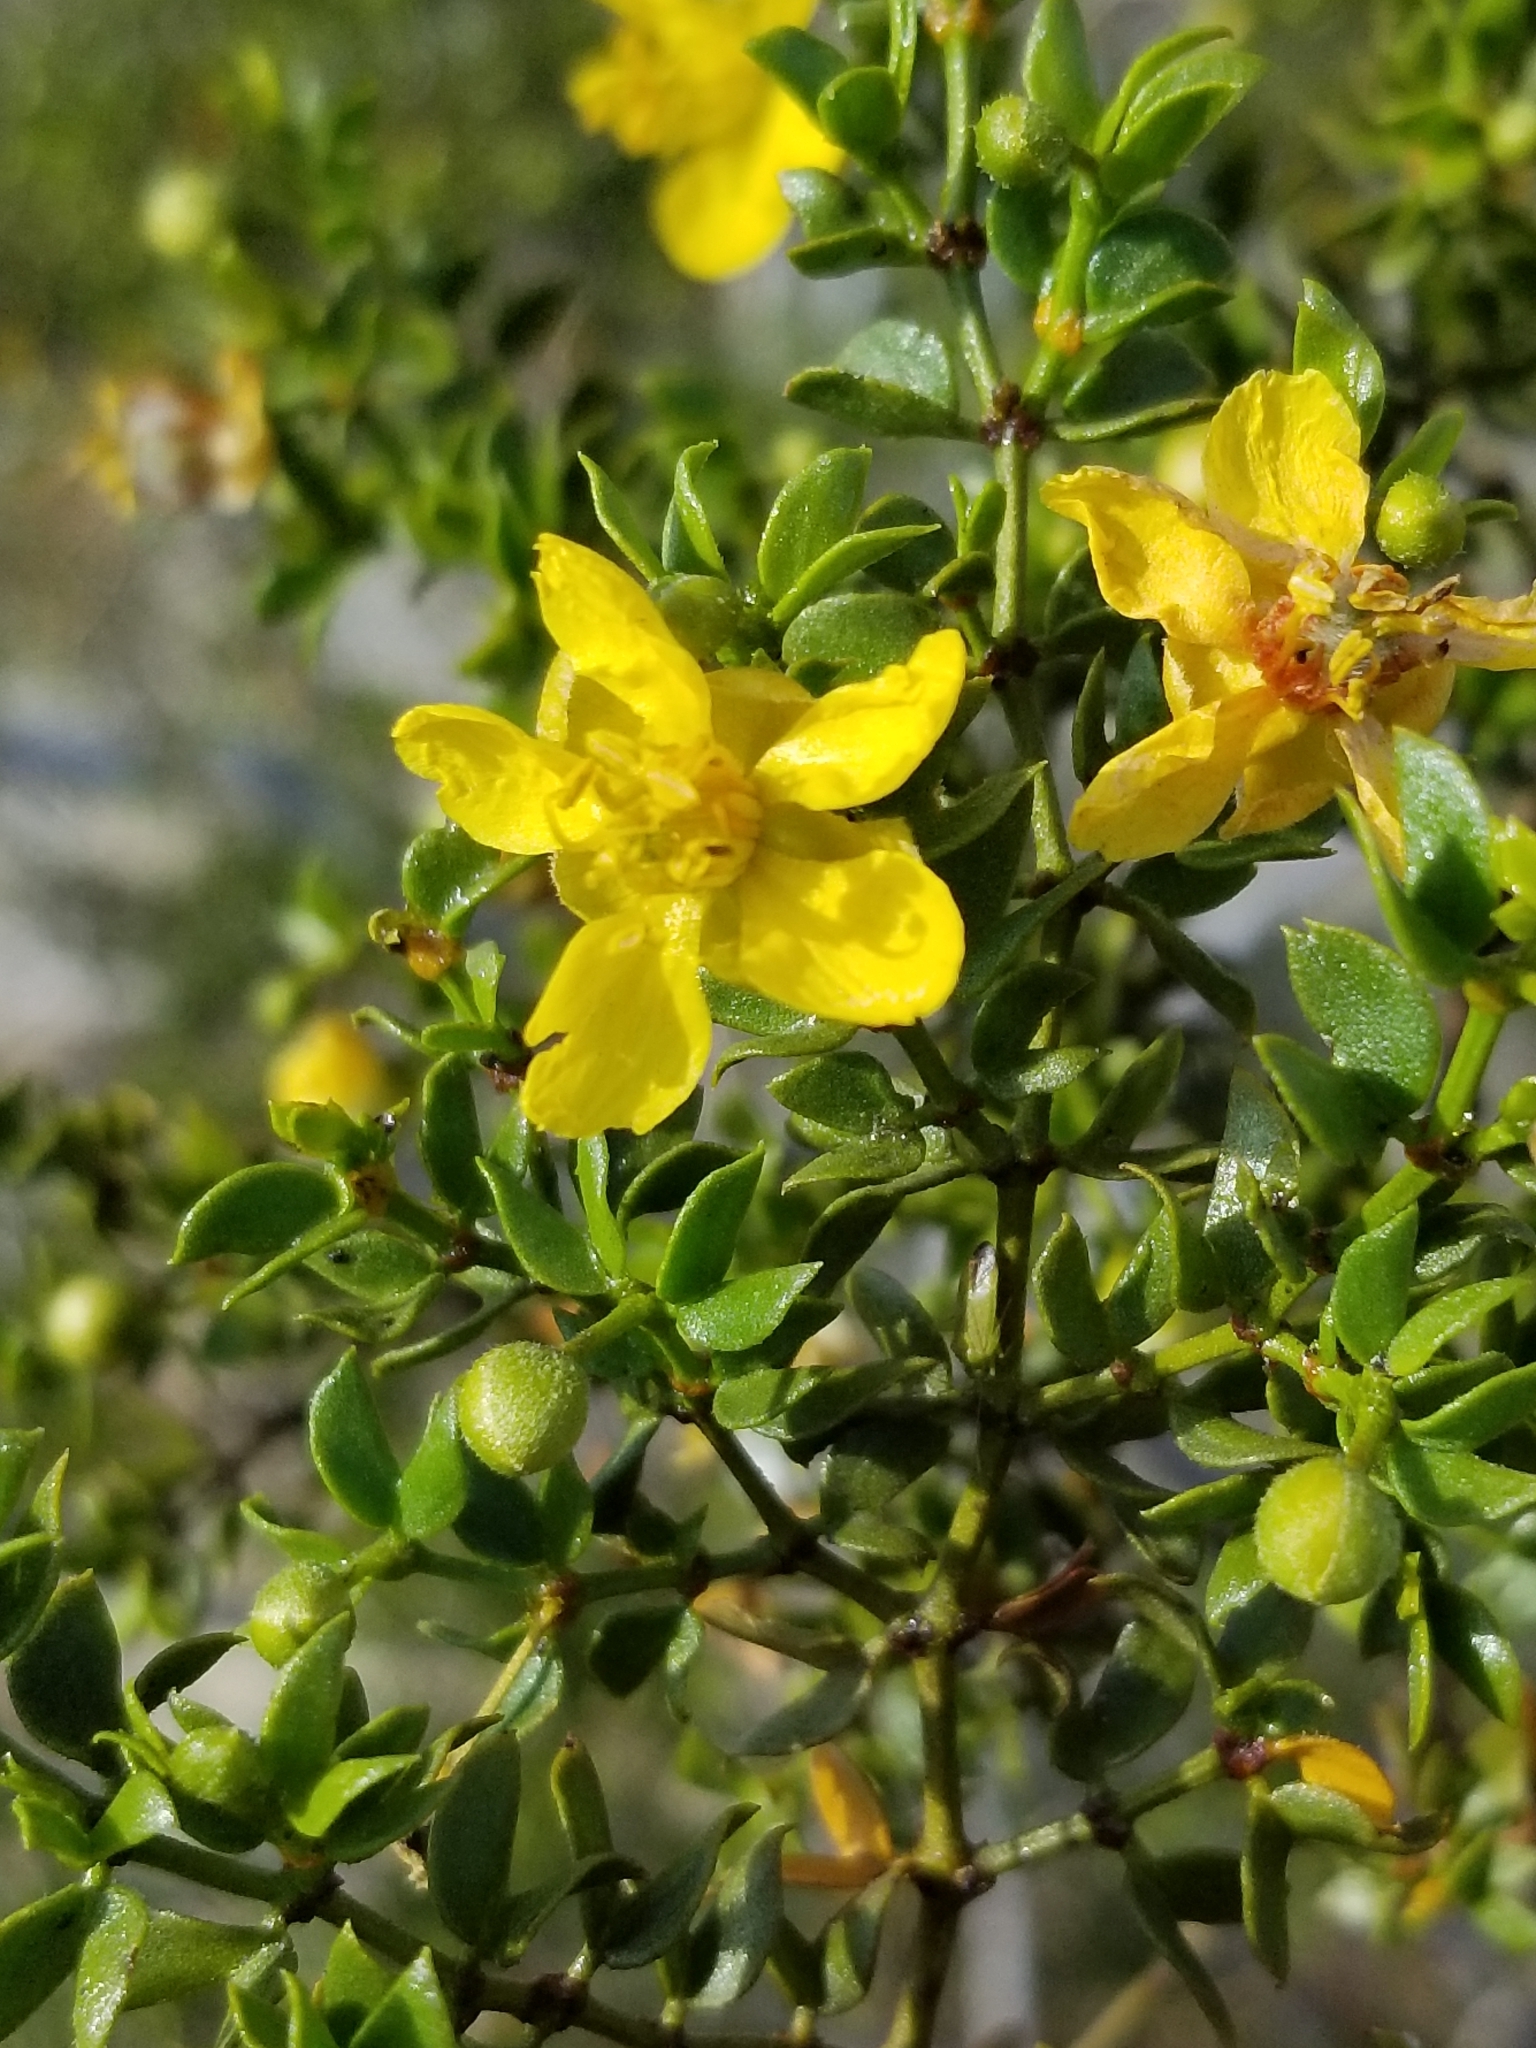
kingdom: Plantae
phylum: Tracheophyta
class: Magnoliopsida
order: Zygophyllales
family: Zygophyllaceae
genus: Larrea
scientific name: Larrea tridentata
